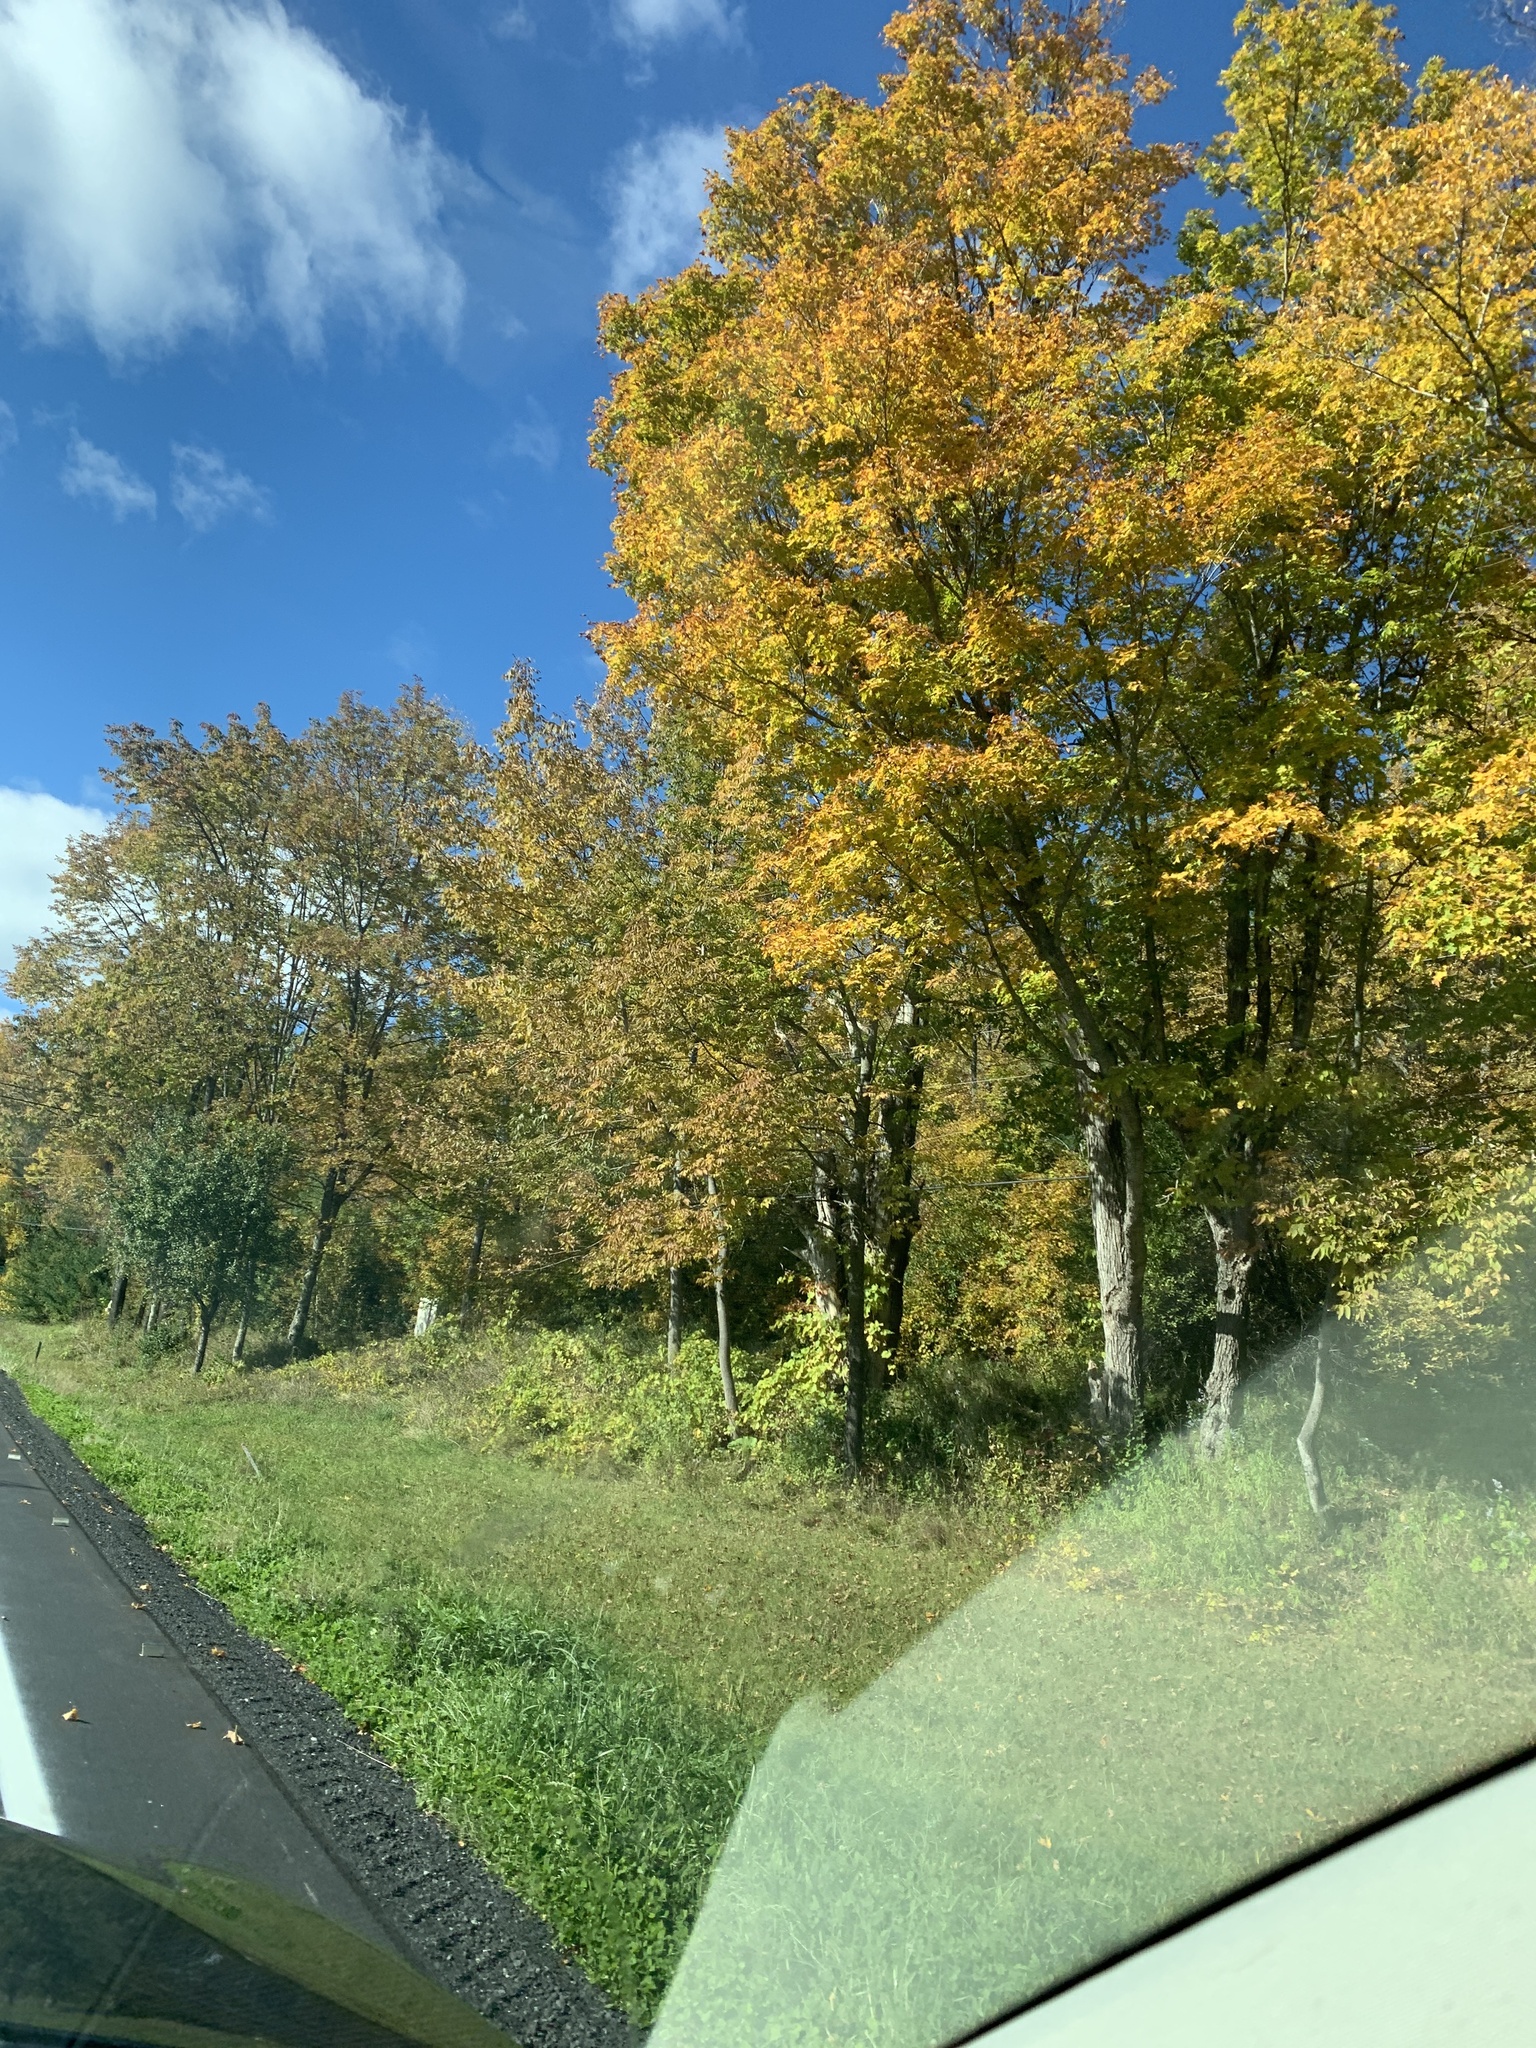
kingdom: Plantae
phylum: Tracheophyta
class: Magnoliopsida
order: Sapindales
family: Sapindaceae
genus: Acer
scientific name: Acer saccharum
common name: Sugar maple
